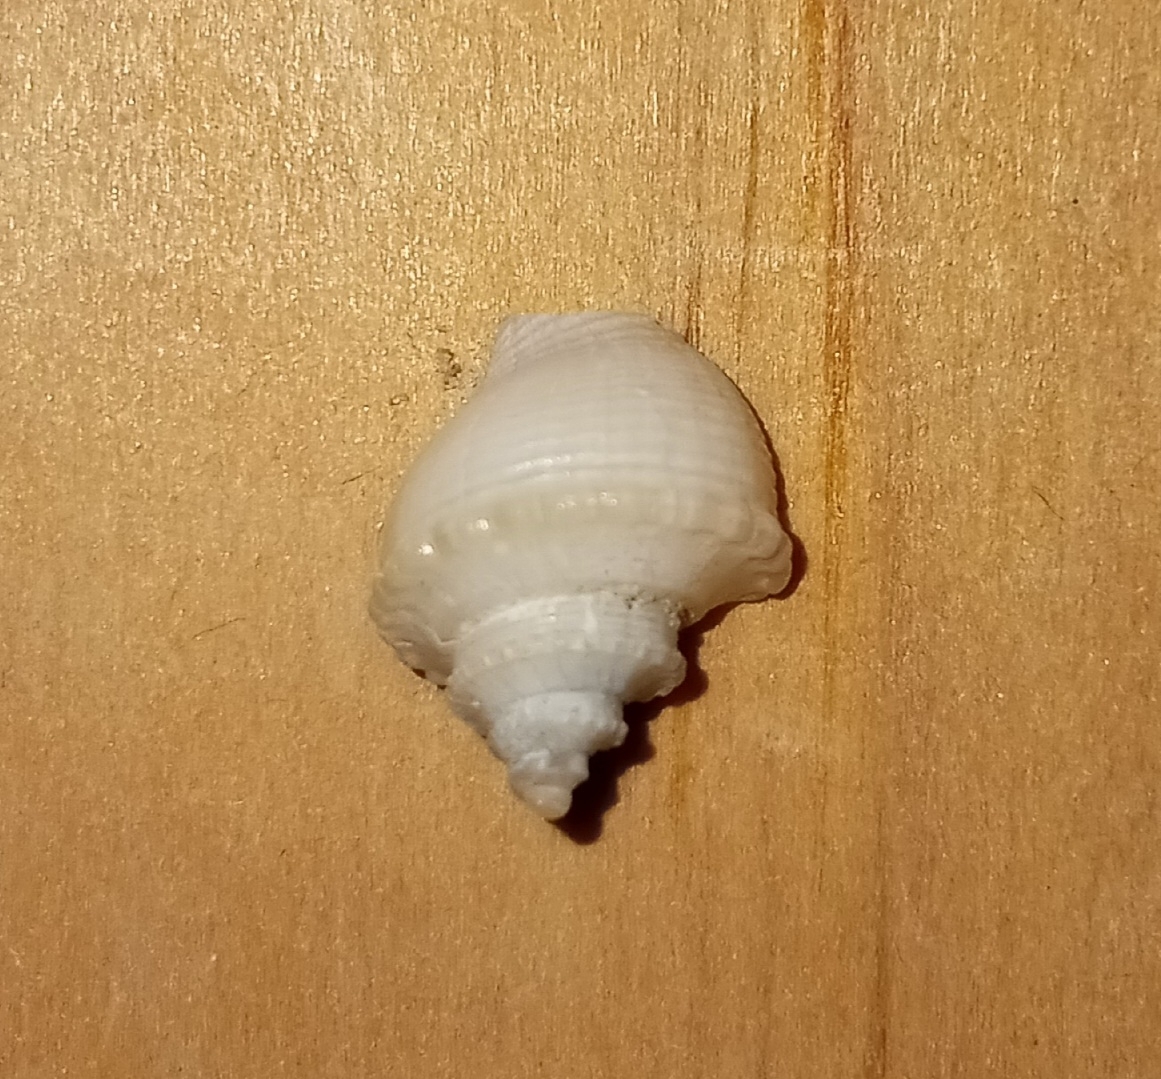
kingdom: Animalia
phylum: Mollusca
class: Gastropoda
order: Neogastropoda
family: Busyconidae
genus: Busycotypus
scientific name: Busycotypus canaliculatus
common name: Channeled whelk
